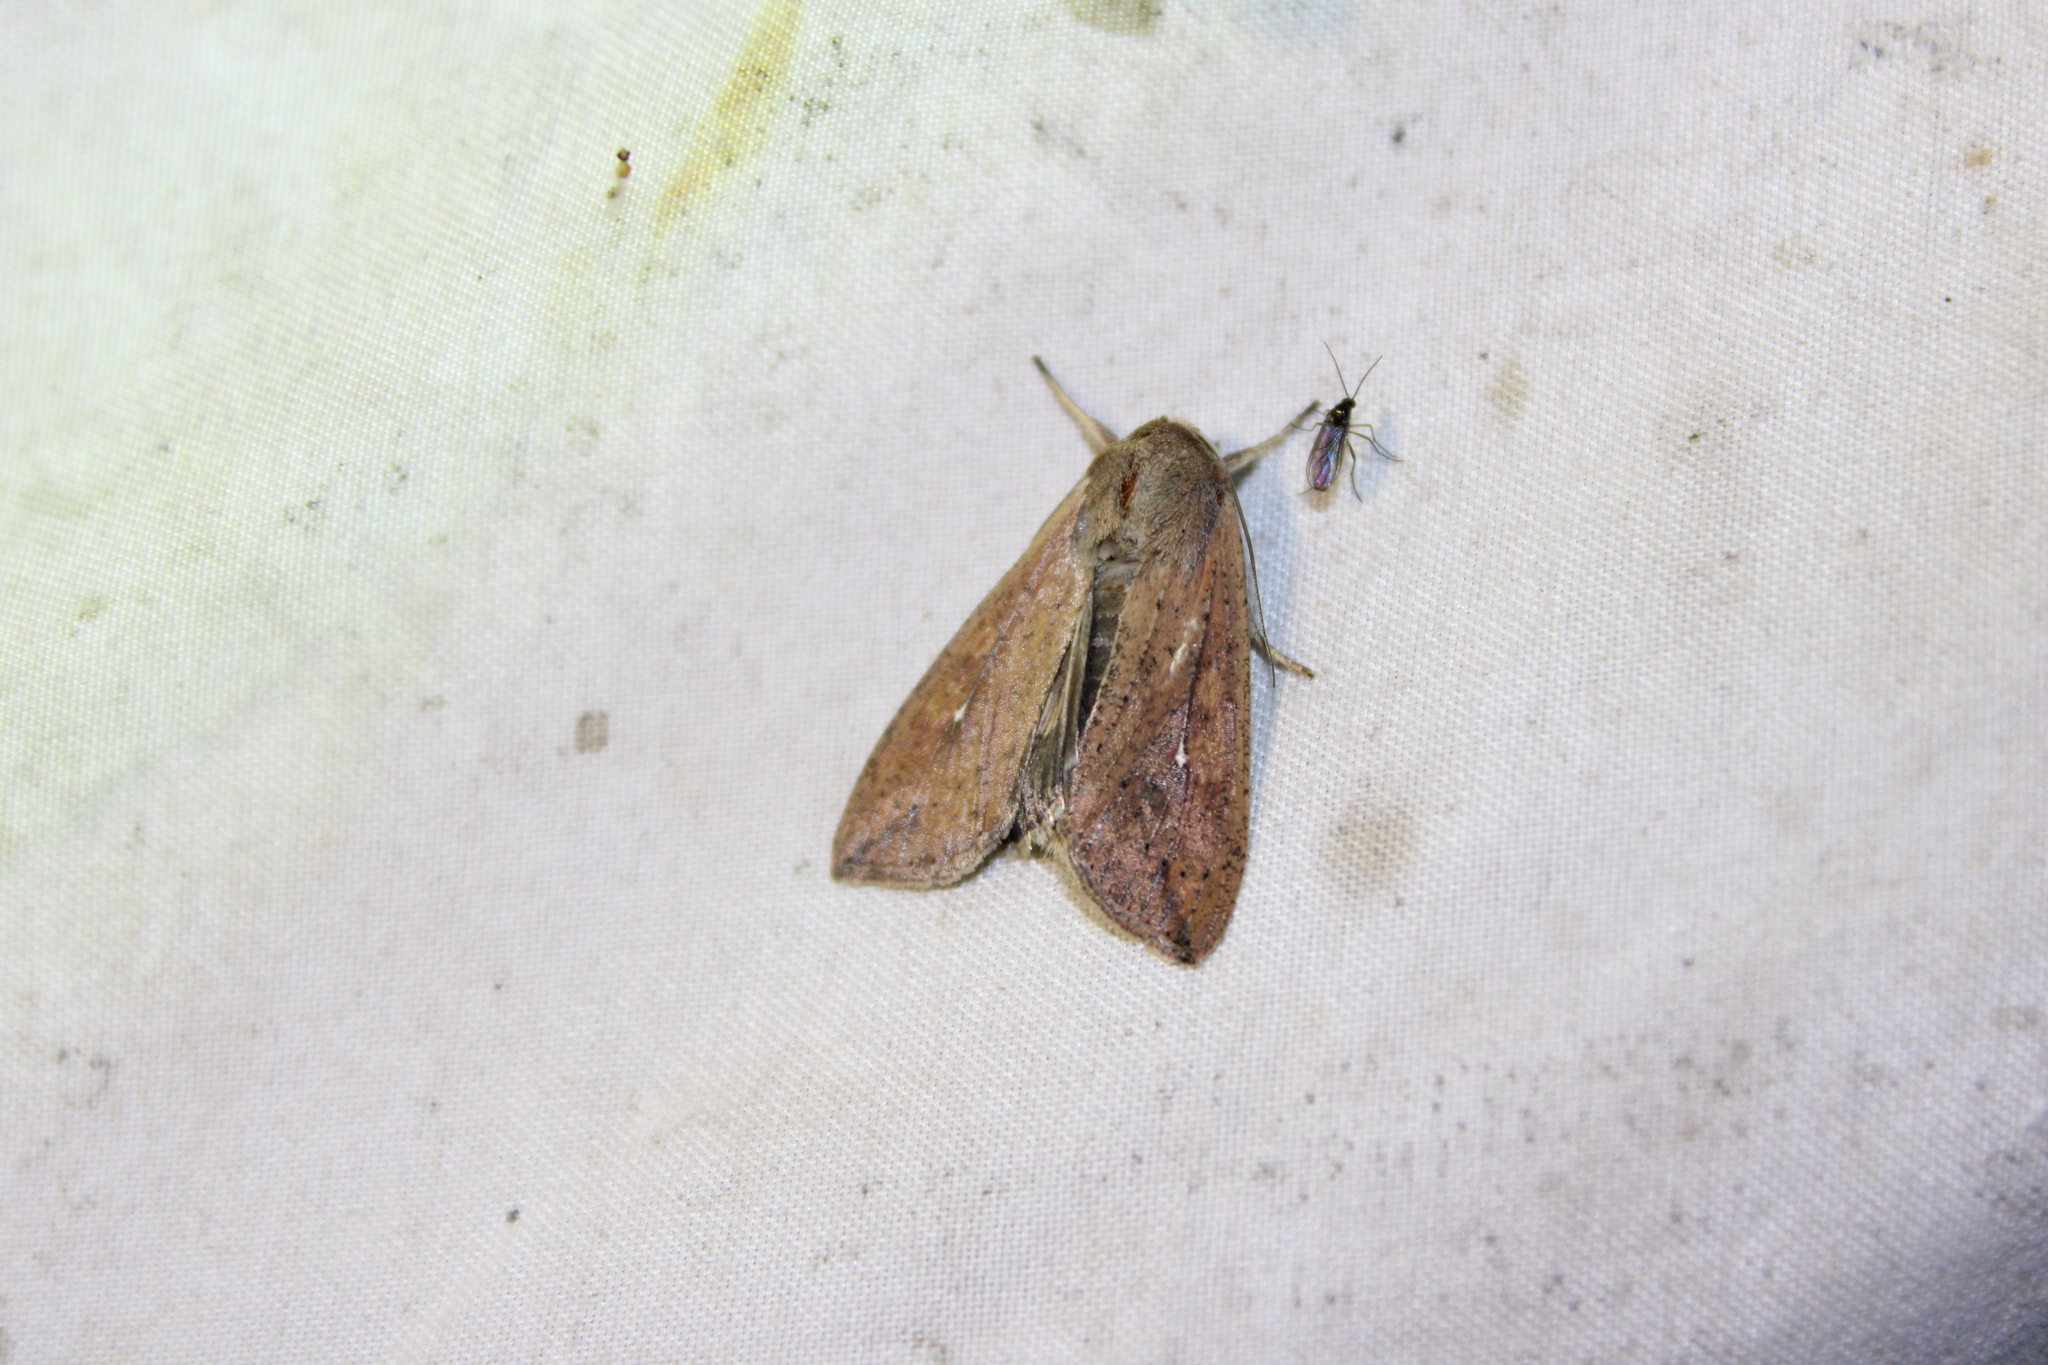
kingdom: Animalia
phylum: Arthropoda
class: Insecta
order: Lepidoptera
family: Noctuidae
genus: Mythimna
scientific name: Mythimna unipuncta
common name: White-speck
